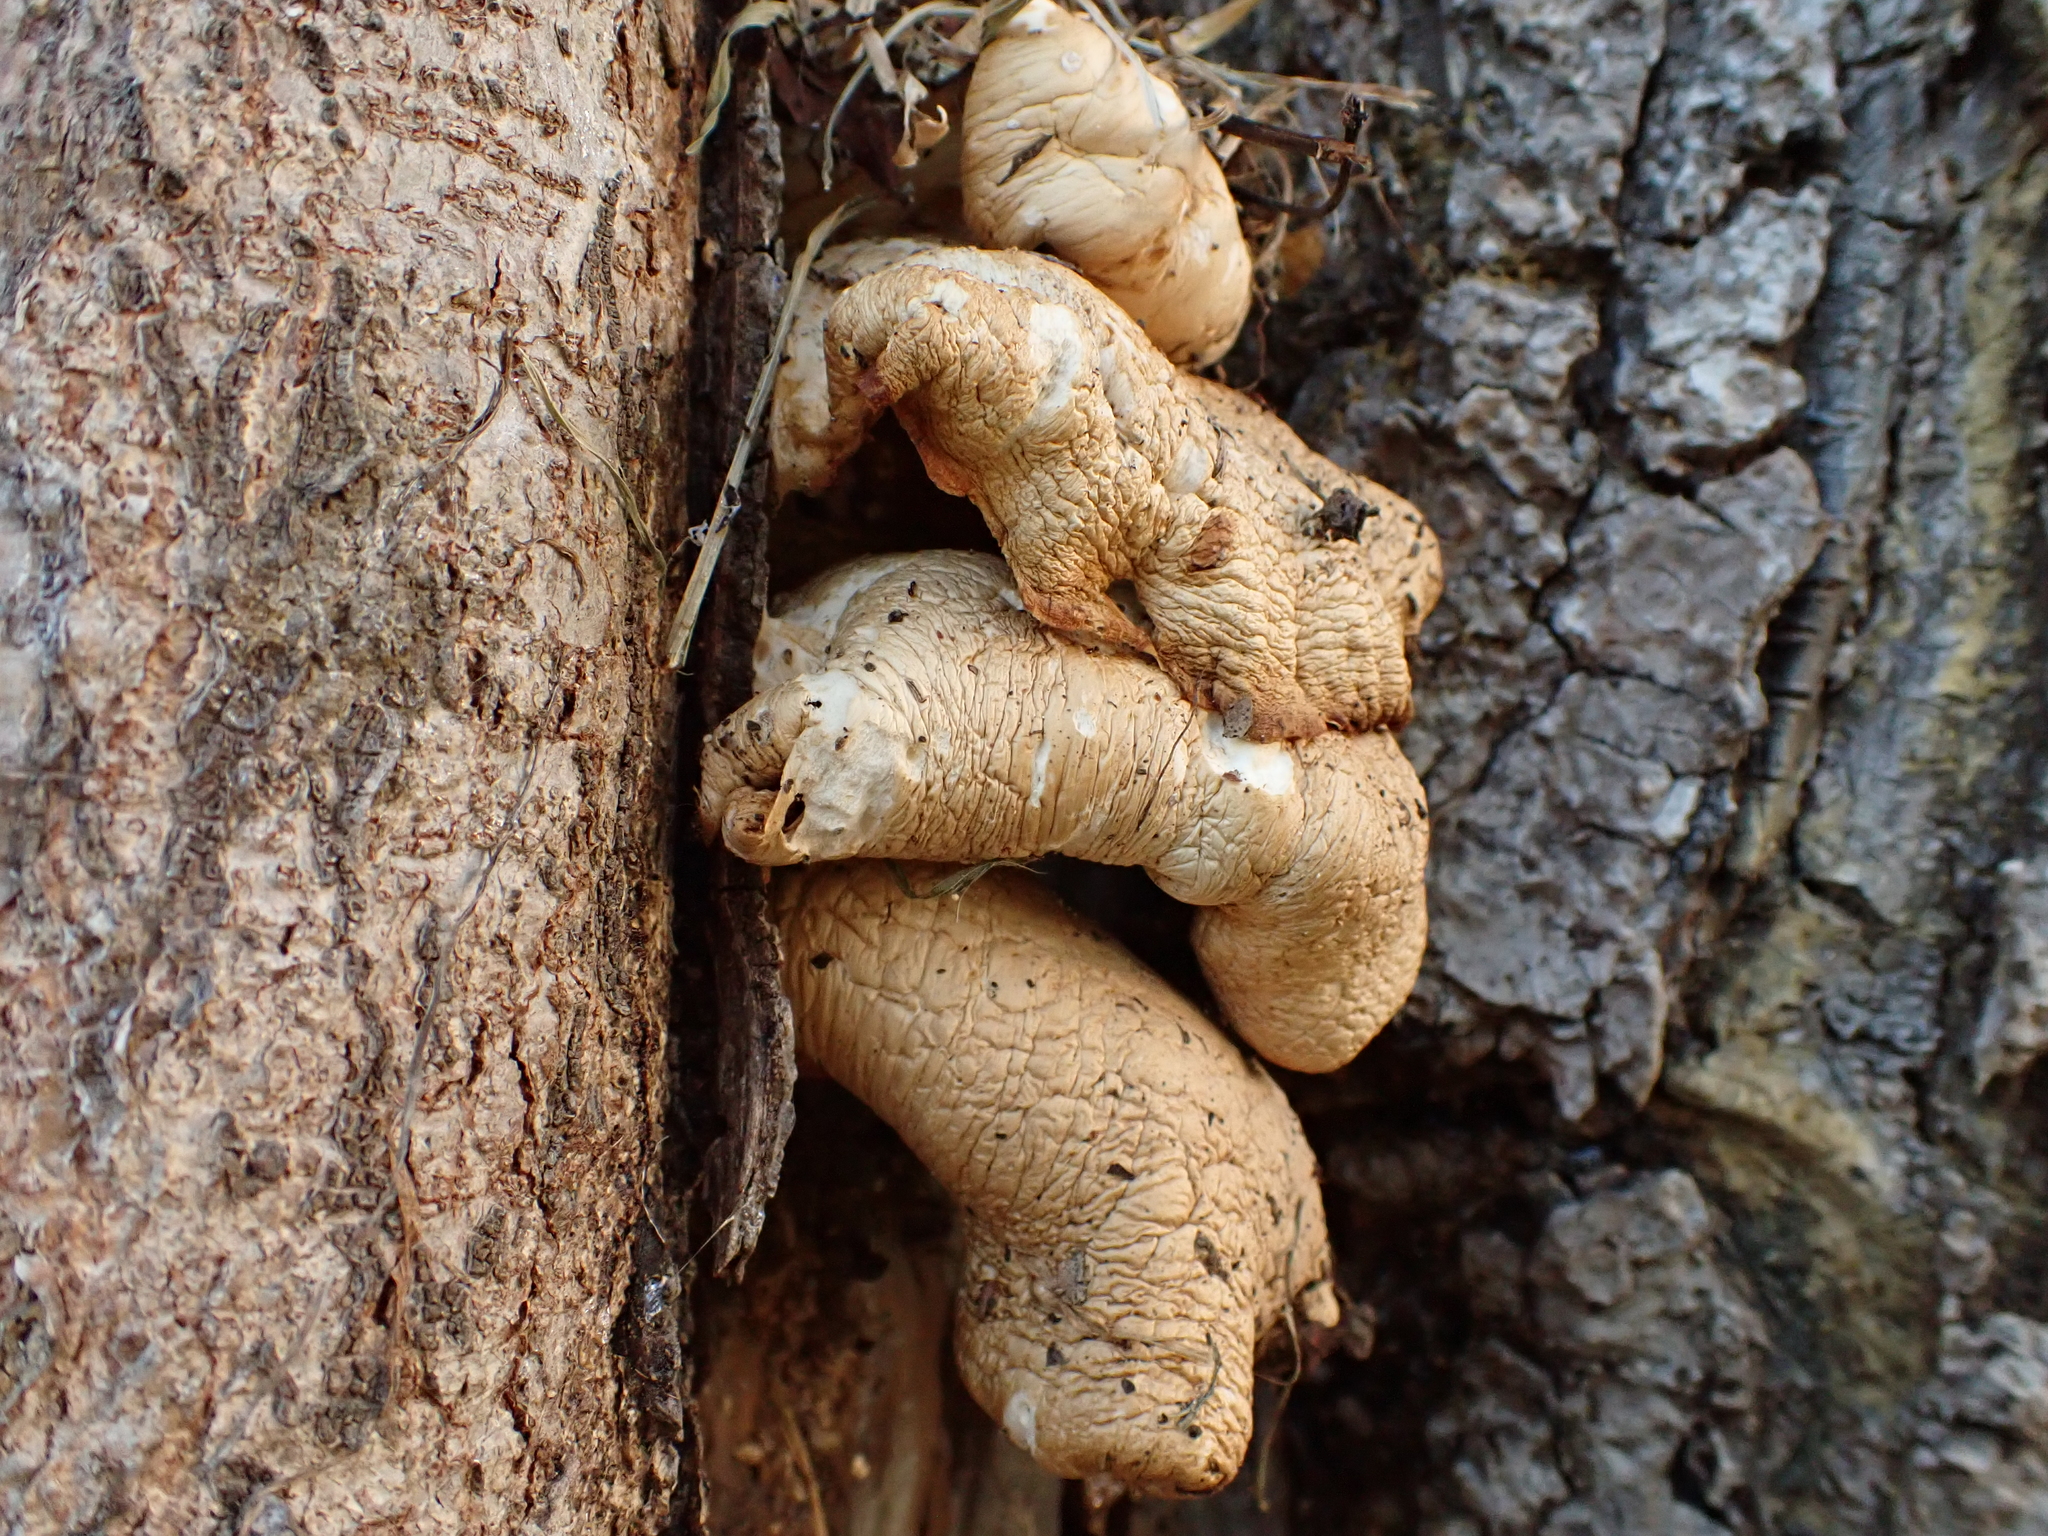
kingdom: Fungi
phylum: Basidiomycota
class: Agaricomycetes
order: Agaricales
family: Pleurotaceae
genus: Pleurotus
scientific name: Pleurotus
